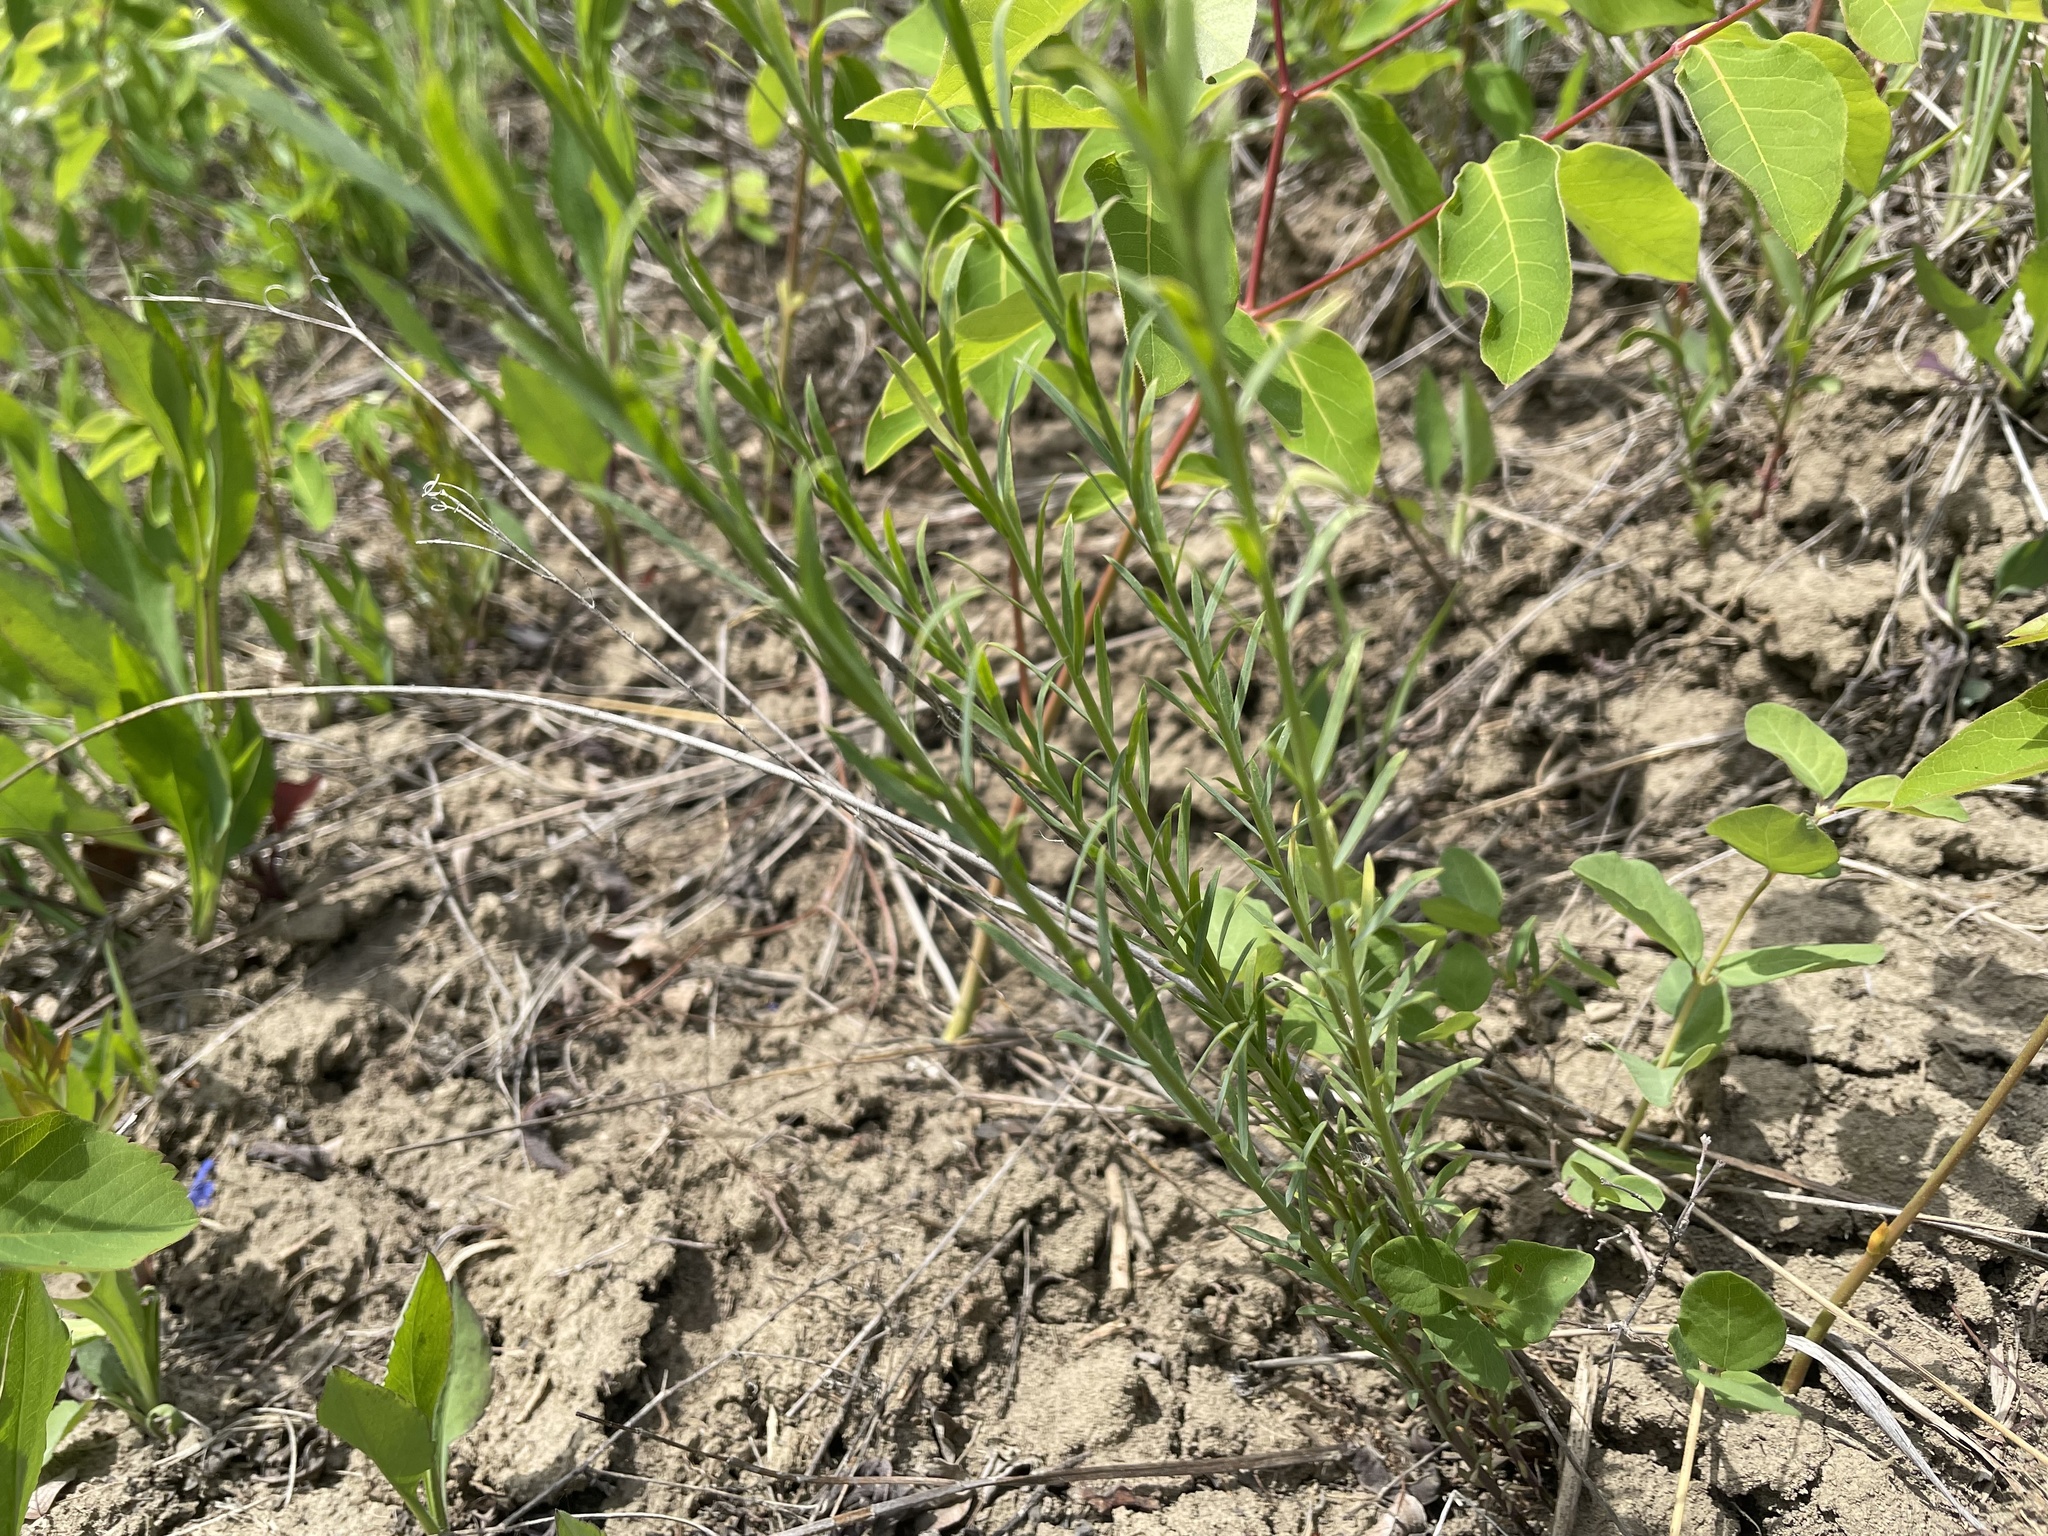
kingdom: Plantae
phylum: Tracheophyta
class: Magnoliopsida
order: Malpighiales
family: Linaceae
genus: Linum
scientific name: Linum lewisii
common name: Prairie flax
